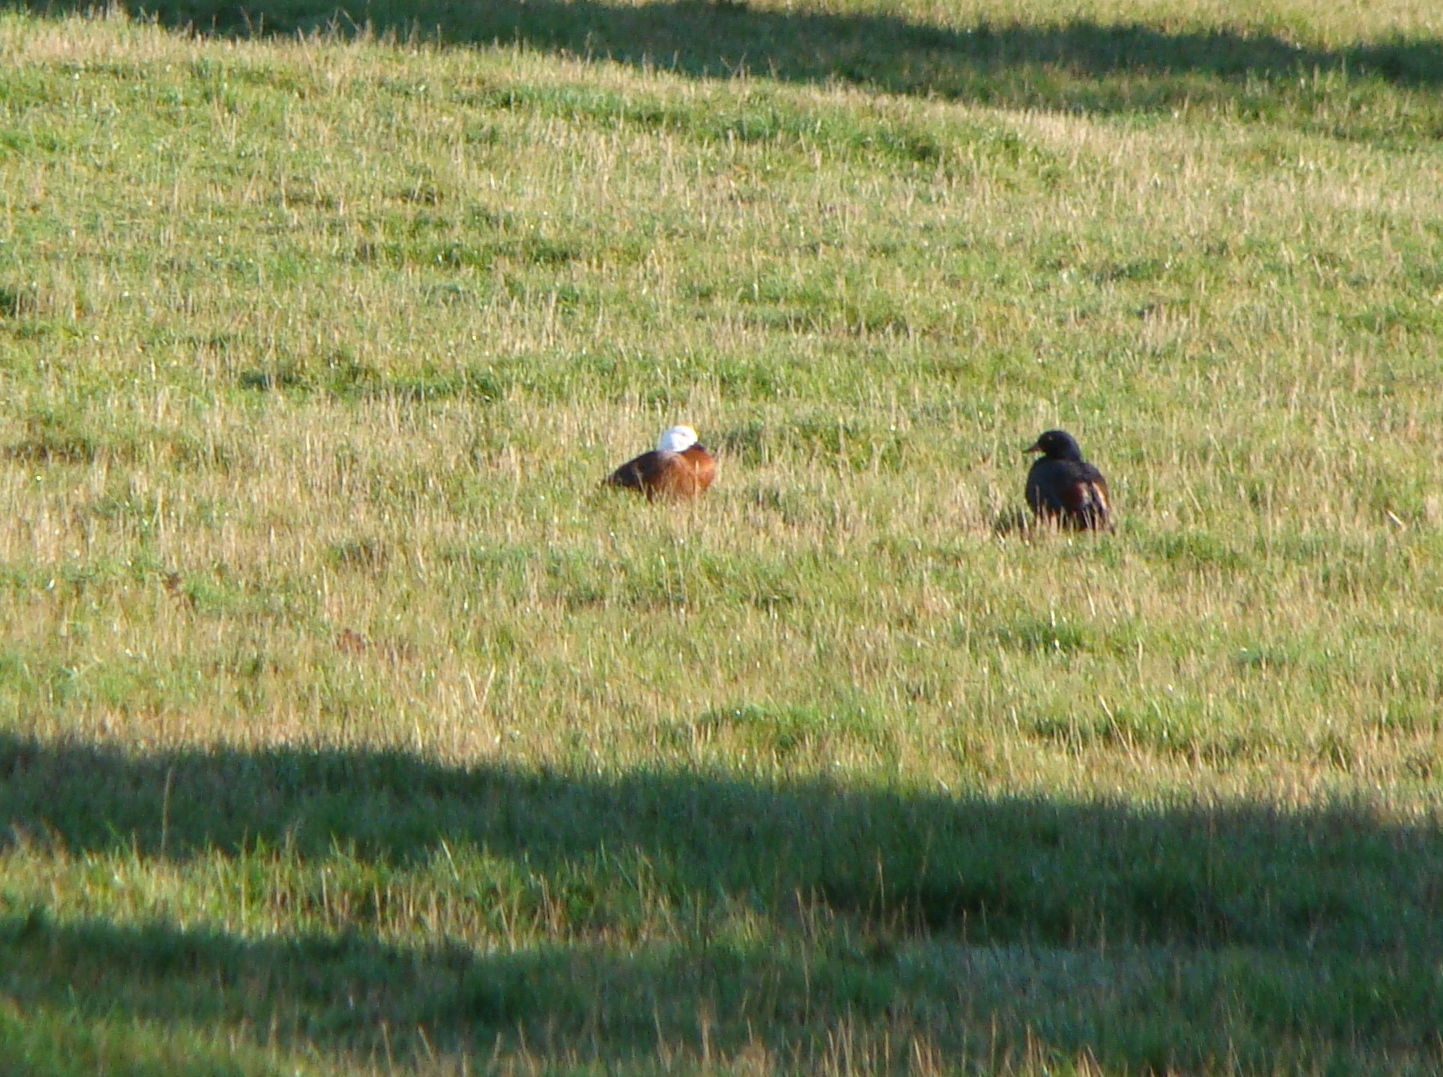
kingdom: Animalia
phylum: Chordata
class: Aves
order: Anseriformes
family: Anatidae
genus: Tadorna
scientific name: Tadorna variegata
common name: Paradise shelduck
